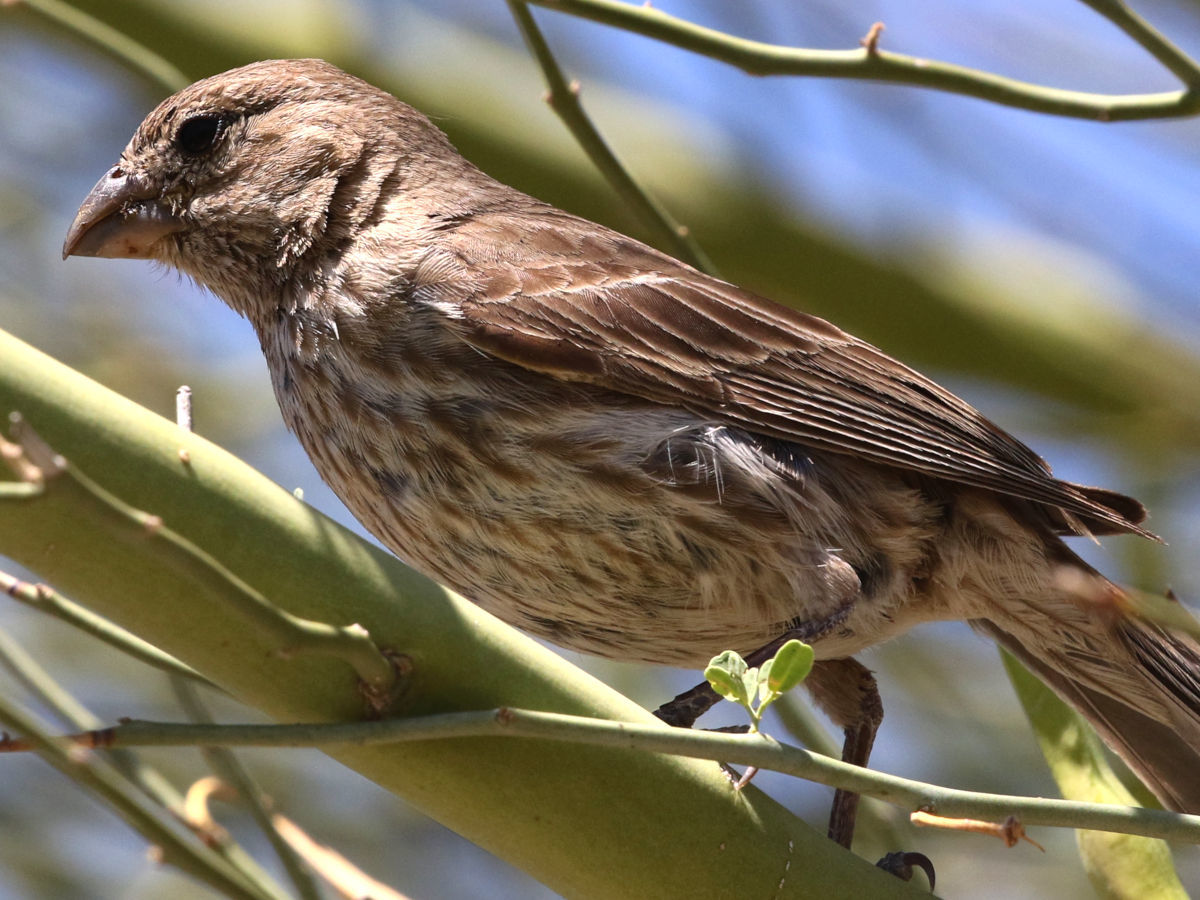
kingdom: Animalia
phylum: Chordata
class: Aves
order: Passeriformes
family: Fringillidae
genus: Haemorhous
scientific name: Haemorhous mexicanus
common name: House finch
